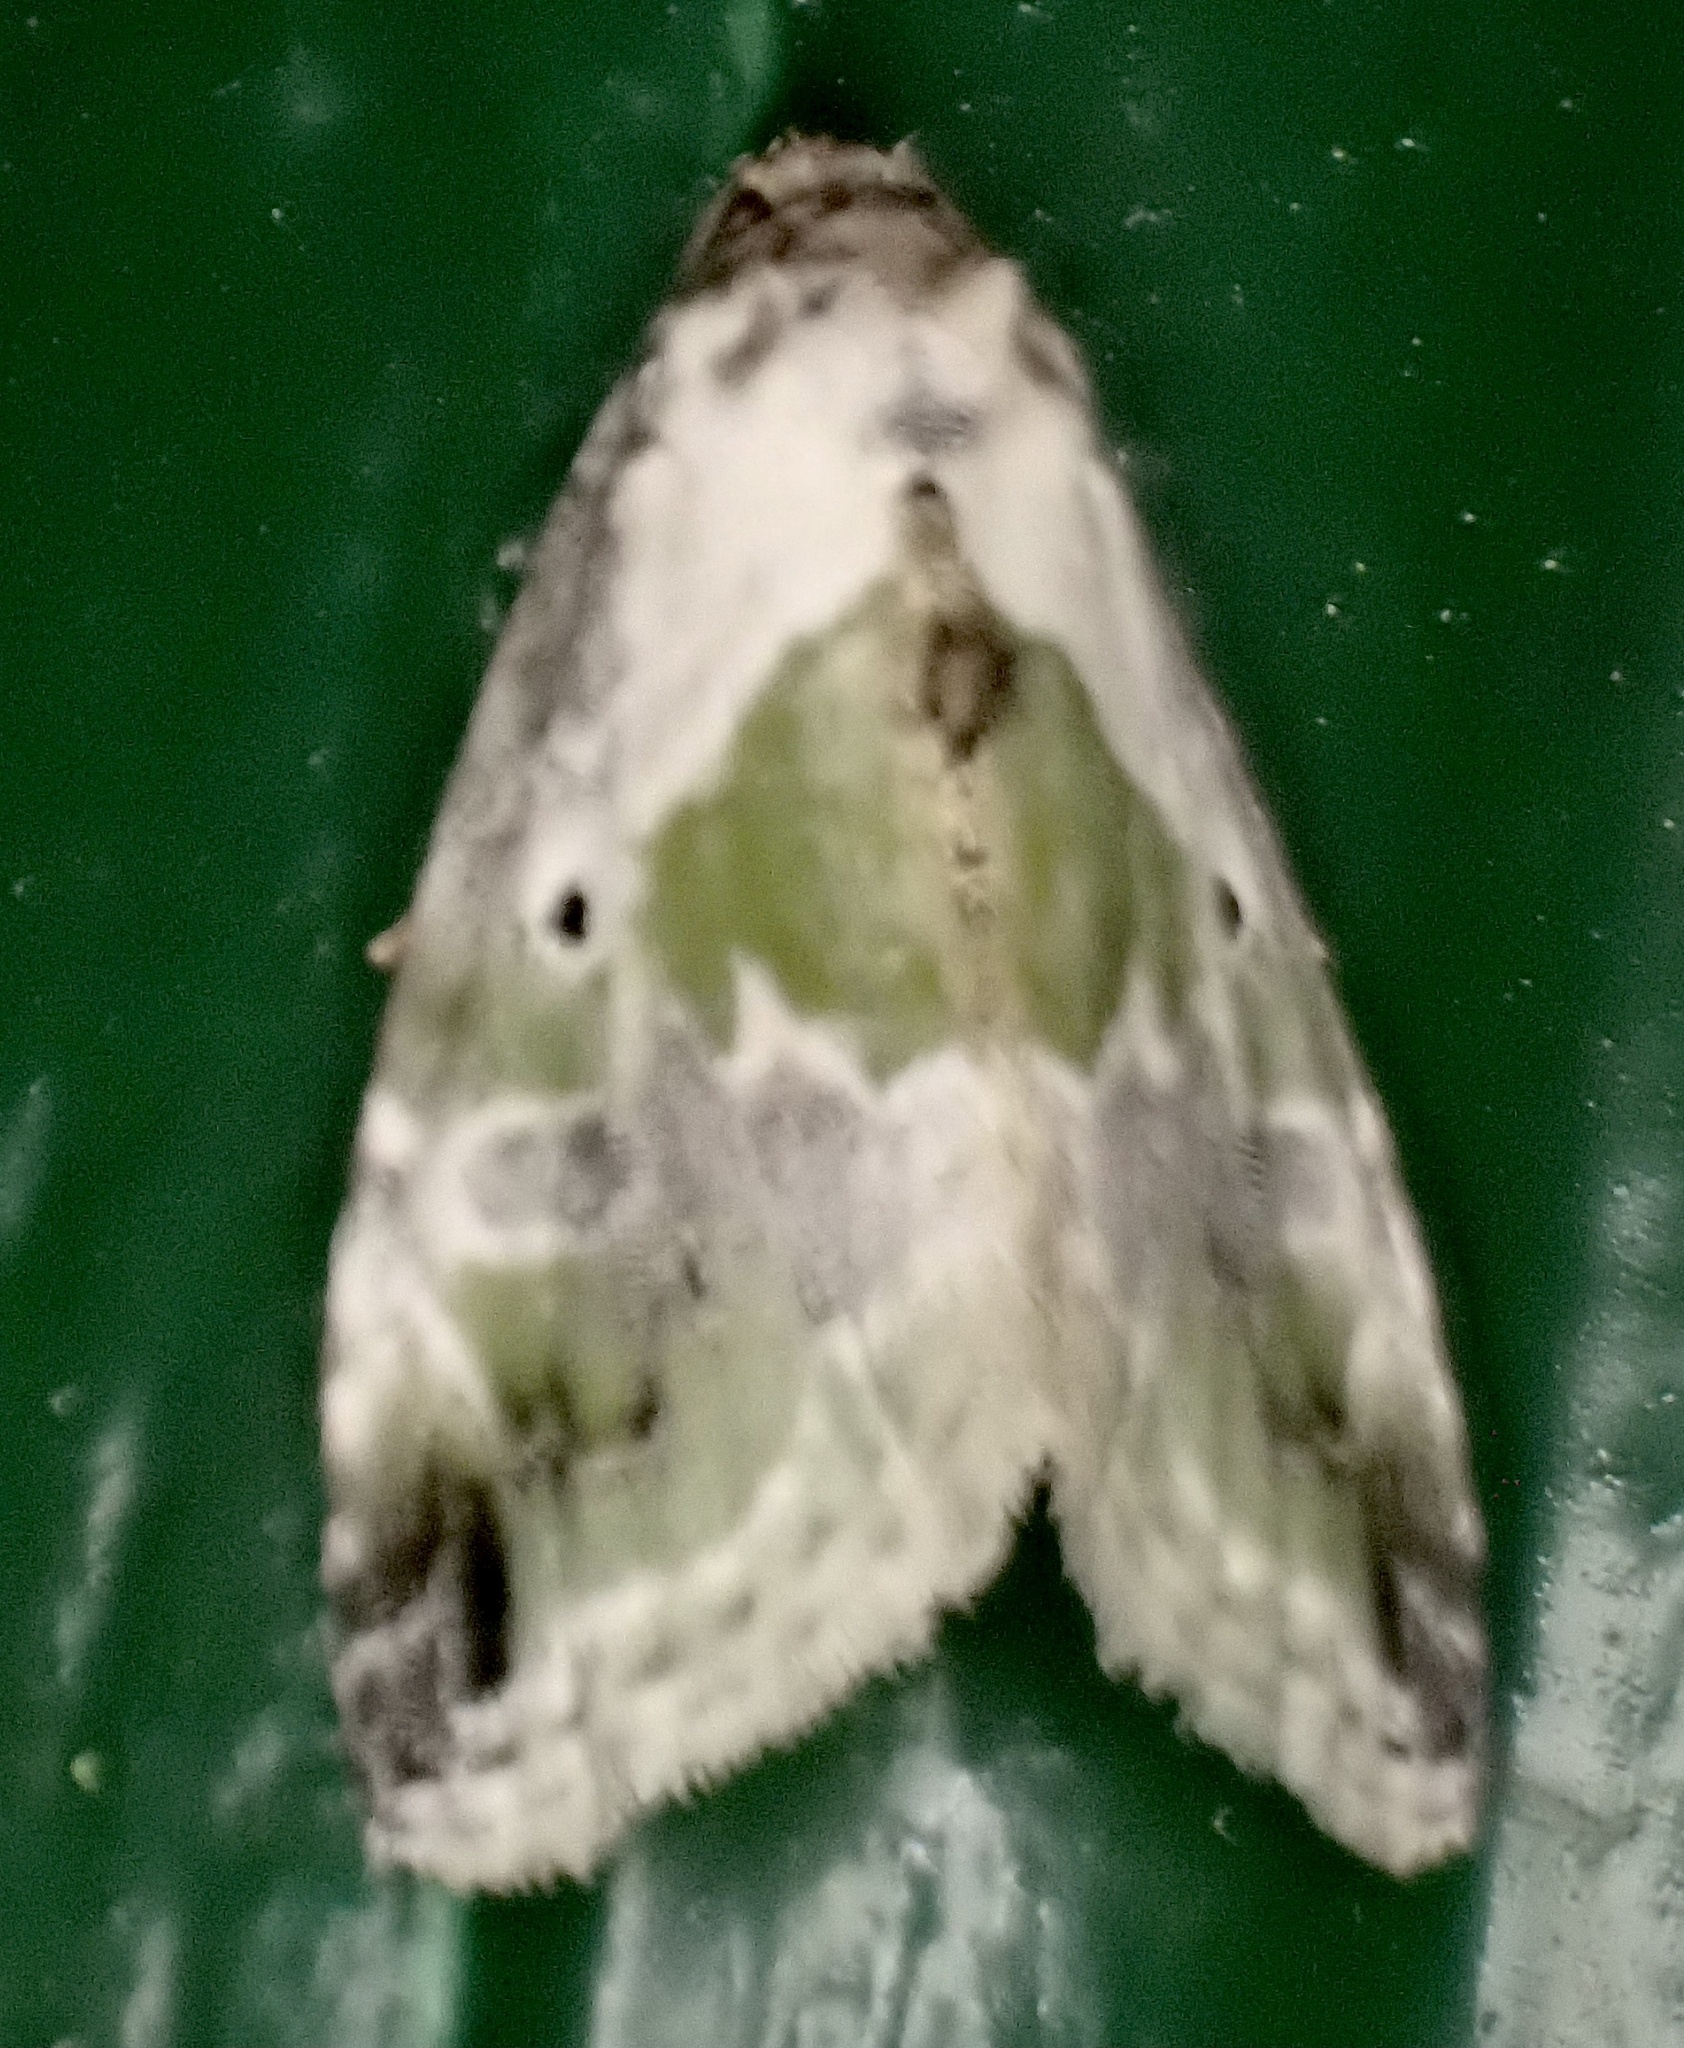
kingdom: Animalia
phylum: Arthropoda
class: Insecta
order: Lepidoptera
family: Noctuidae
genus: Maliattha
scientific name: Maliattha synochitis
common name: Black-dotted glyph
